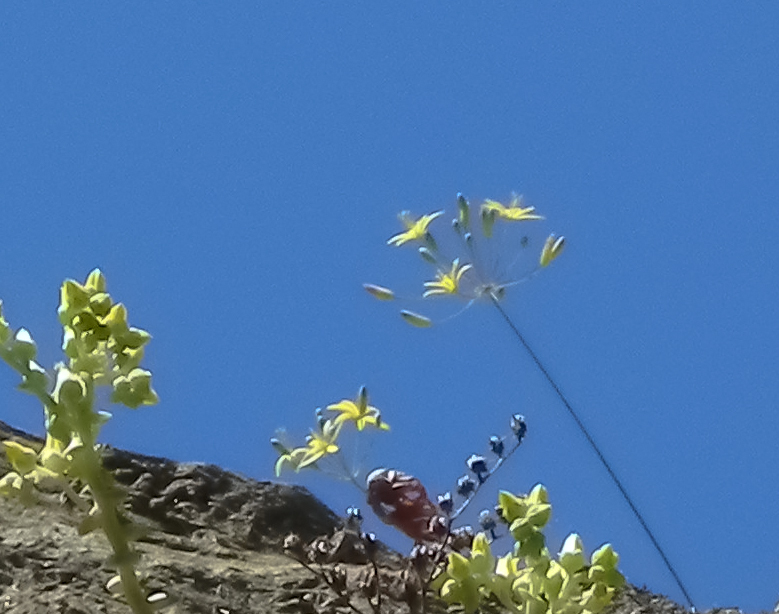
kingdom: Plantae
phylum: Tracheophyta
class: Liliopsida
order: Asparagales
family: Asparagaceae
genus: Bloomeria
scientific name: Bloomeria crocea
